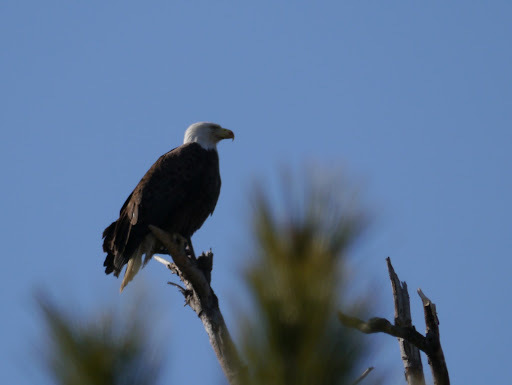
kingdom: Animalia
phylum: Chordata
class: Aves
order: Accipitriformes
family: Accipitridae
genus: Haliaeetus
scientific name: Haliaeetus leucocephalus
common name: Bald eagle
